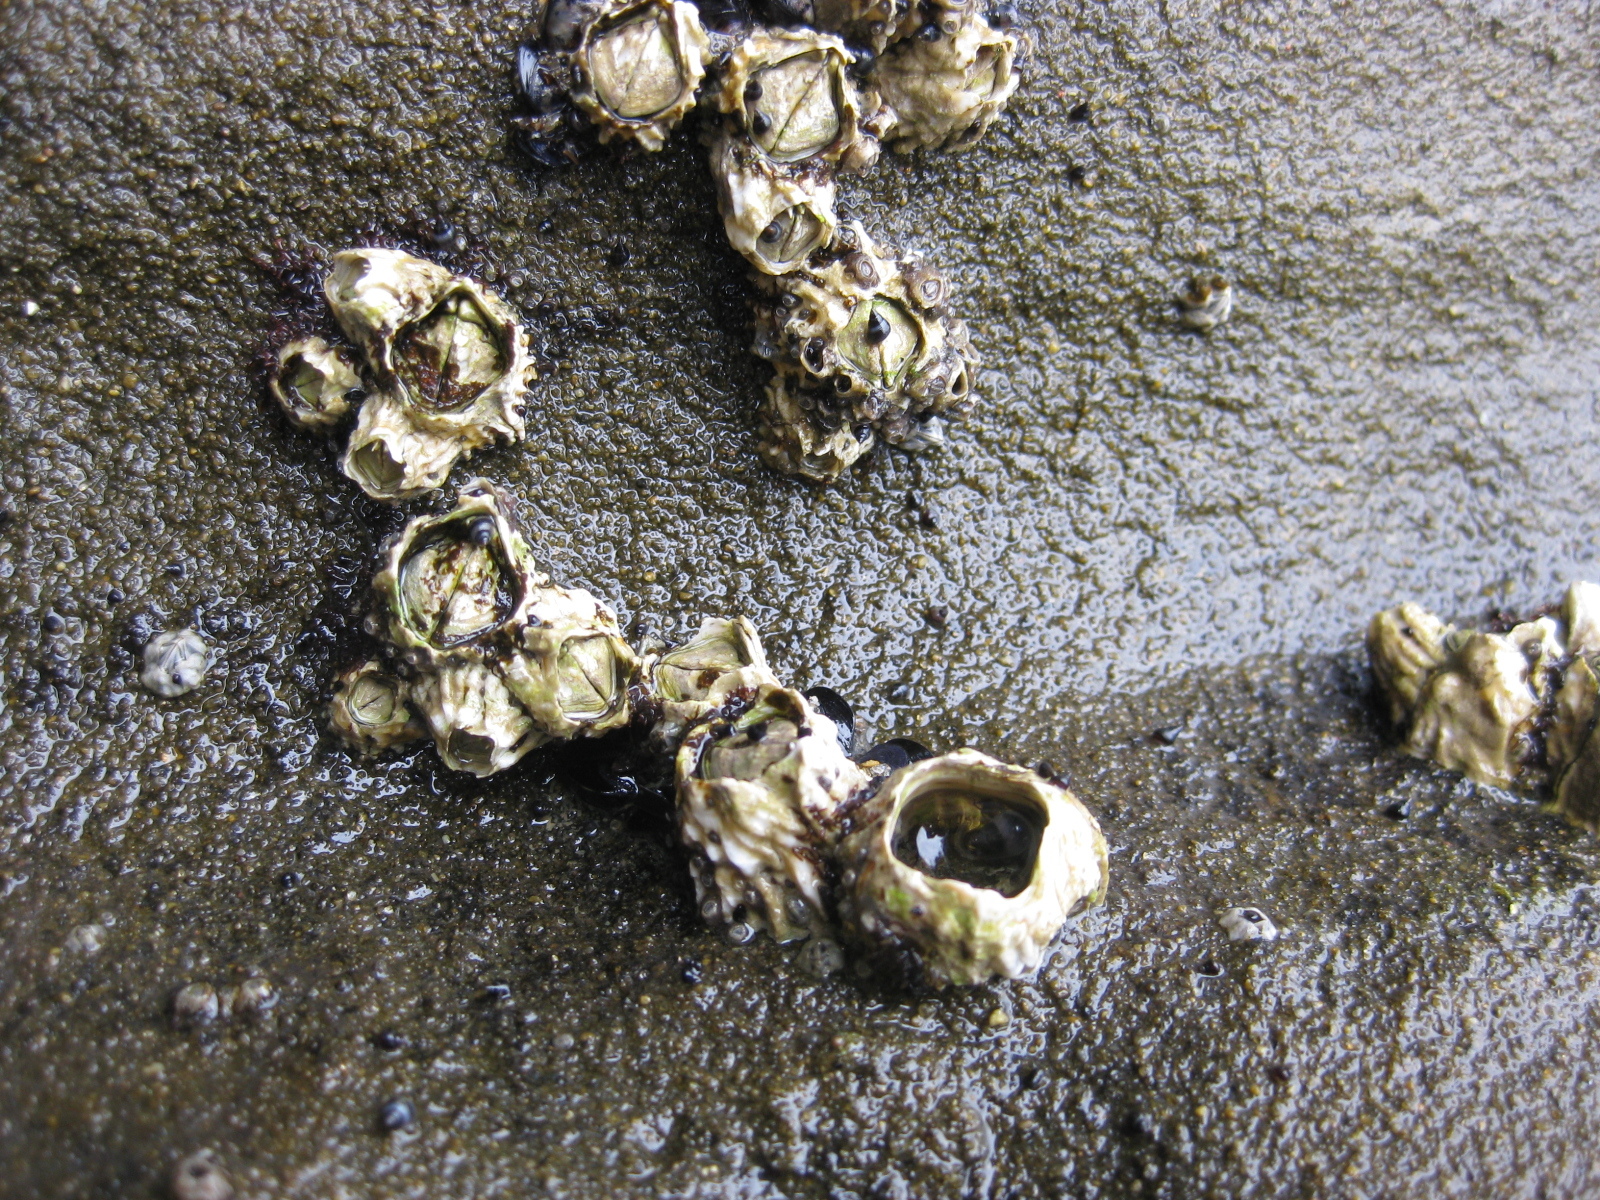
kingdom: Animalia
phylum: Arthropoda
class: Maxillopoda
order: Sessilia
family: Tetraclitidae
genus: Epopella
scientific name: Epopella plicata
